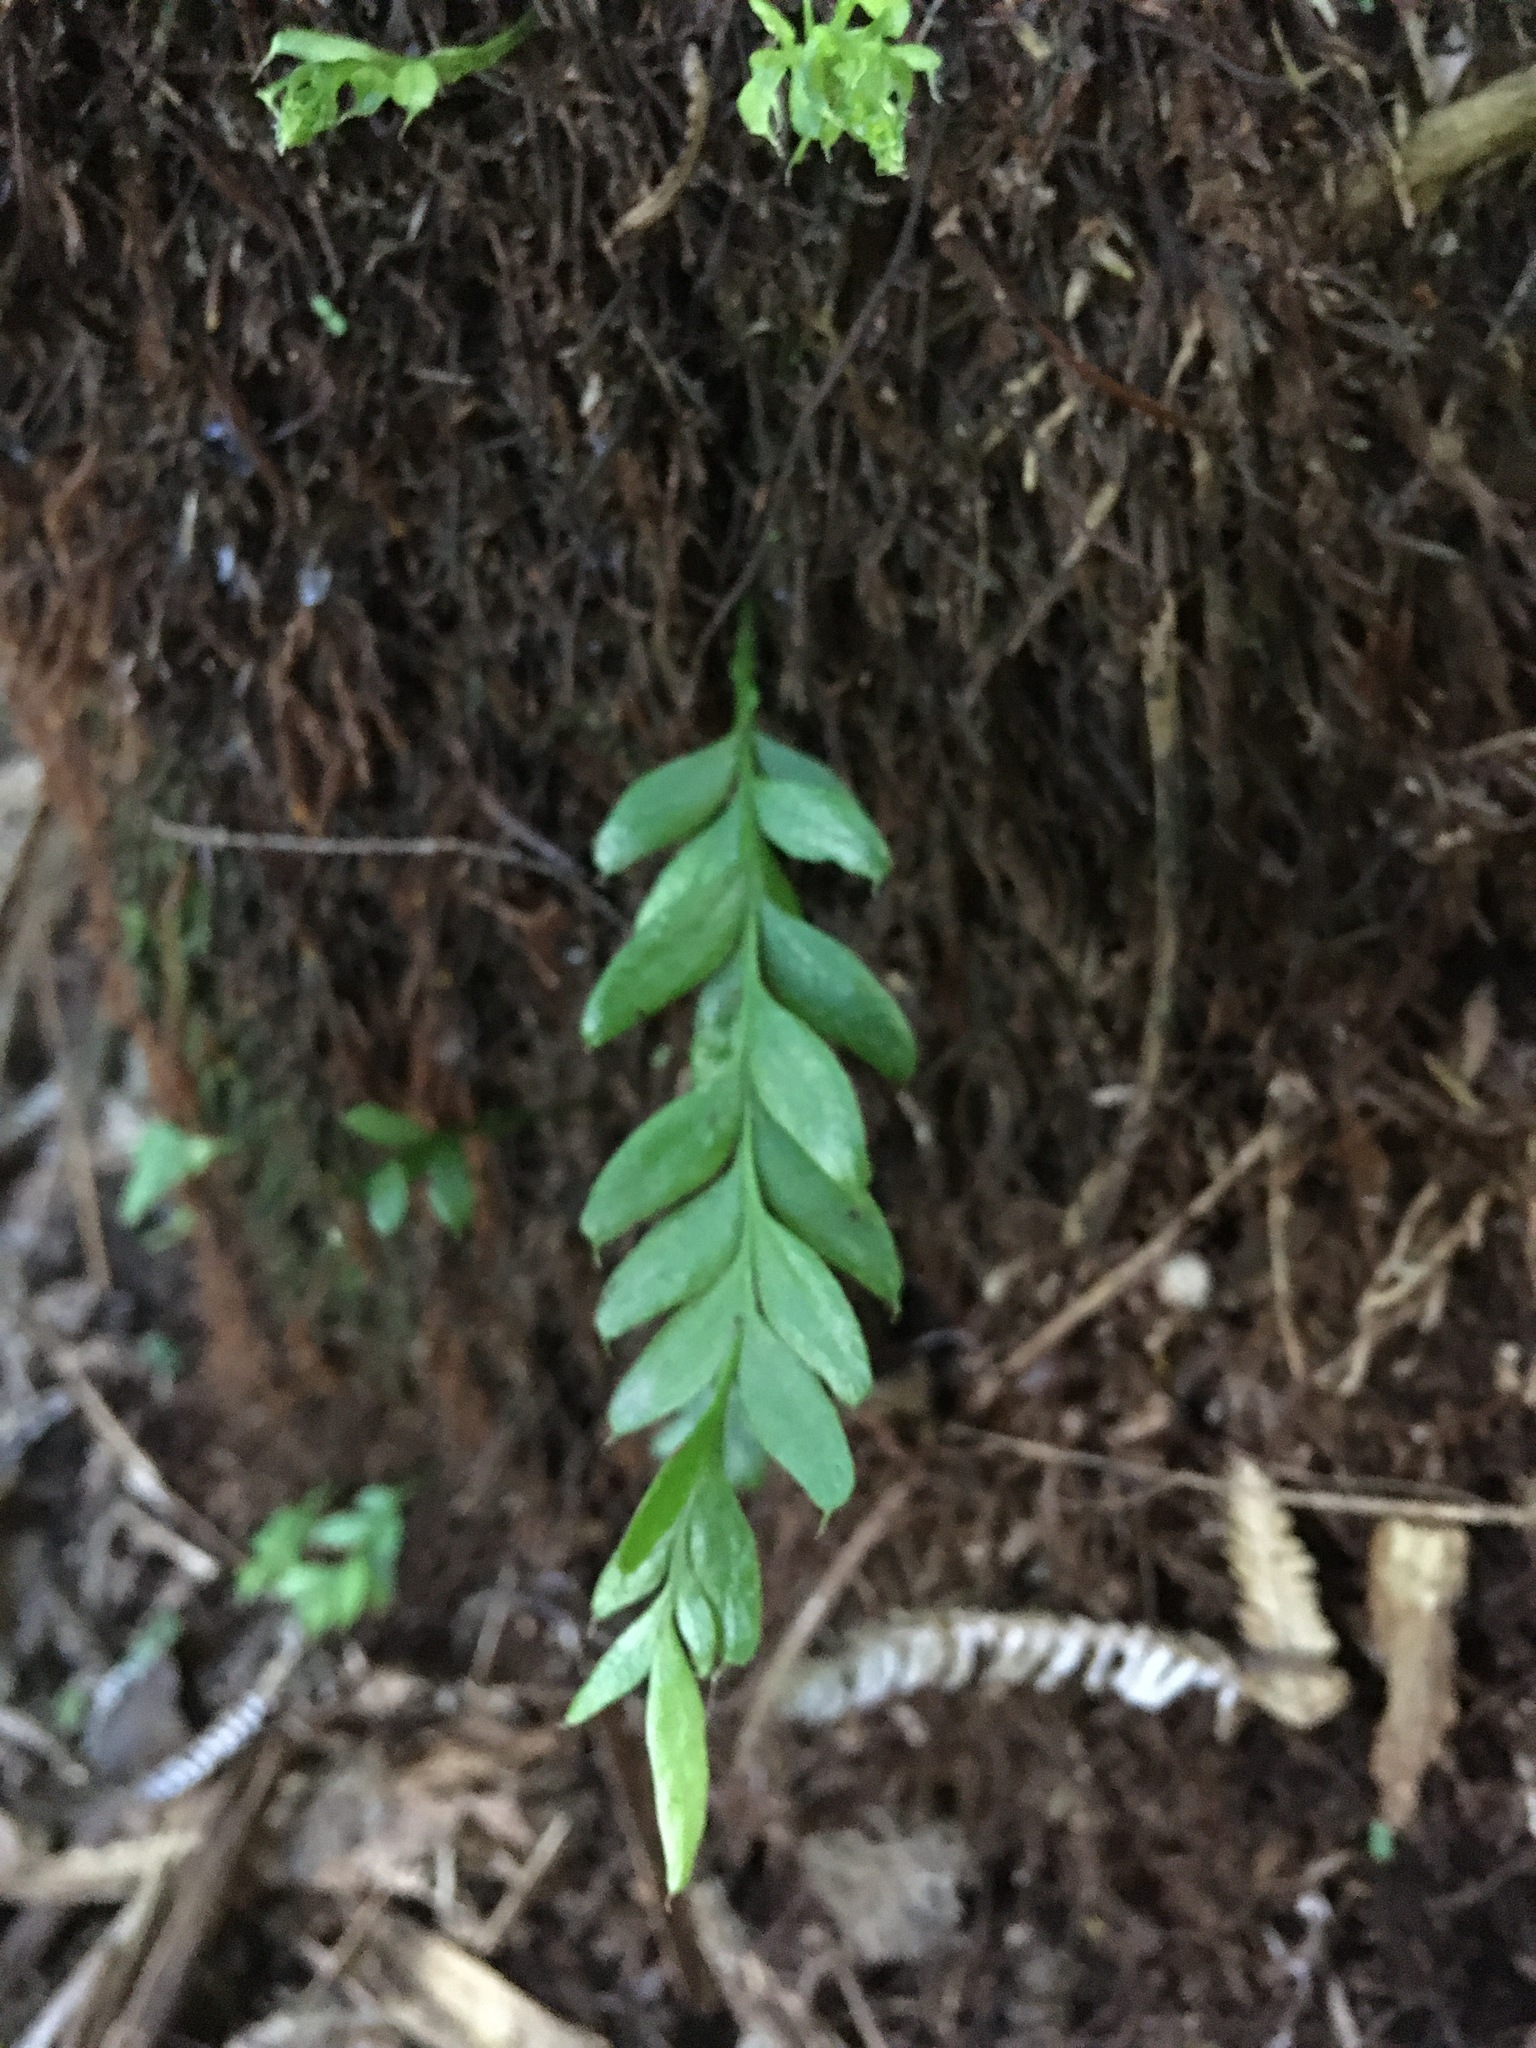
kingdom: Plantae
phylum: Tracheophyta
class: Polypodiopsida
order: Psilotales
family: Psilotaceae
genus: Tmesipteris
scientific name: Tmesipteris lanceolata
